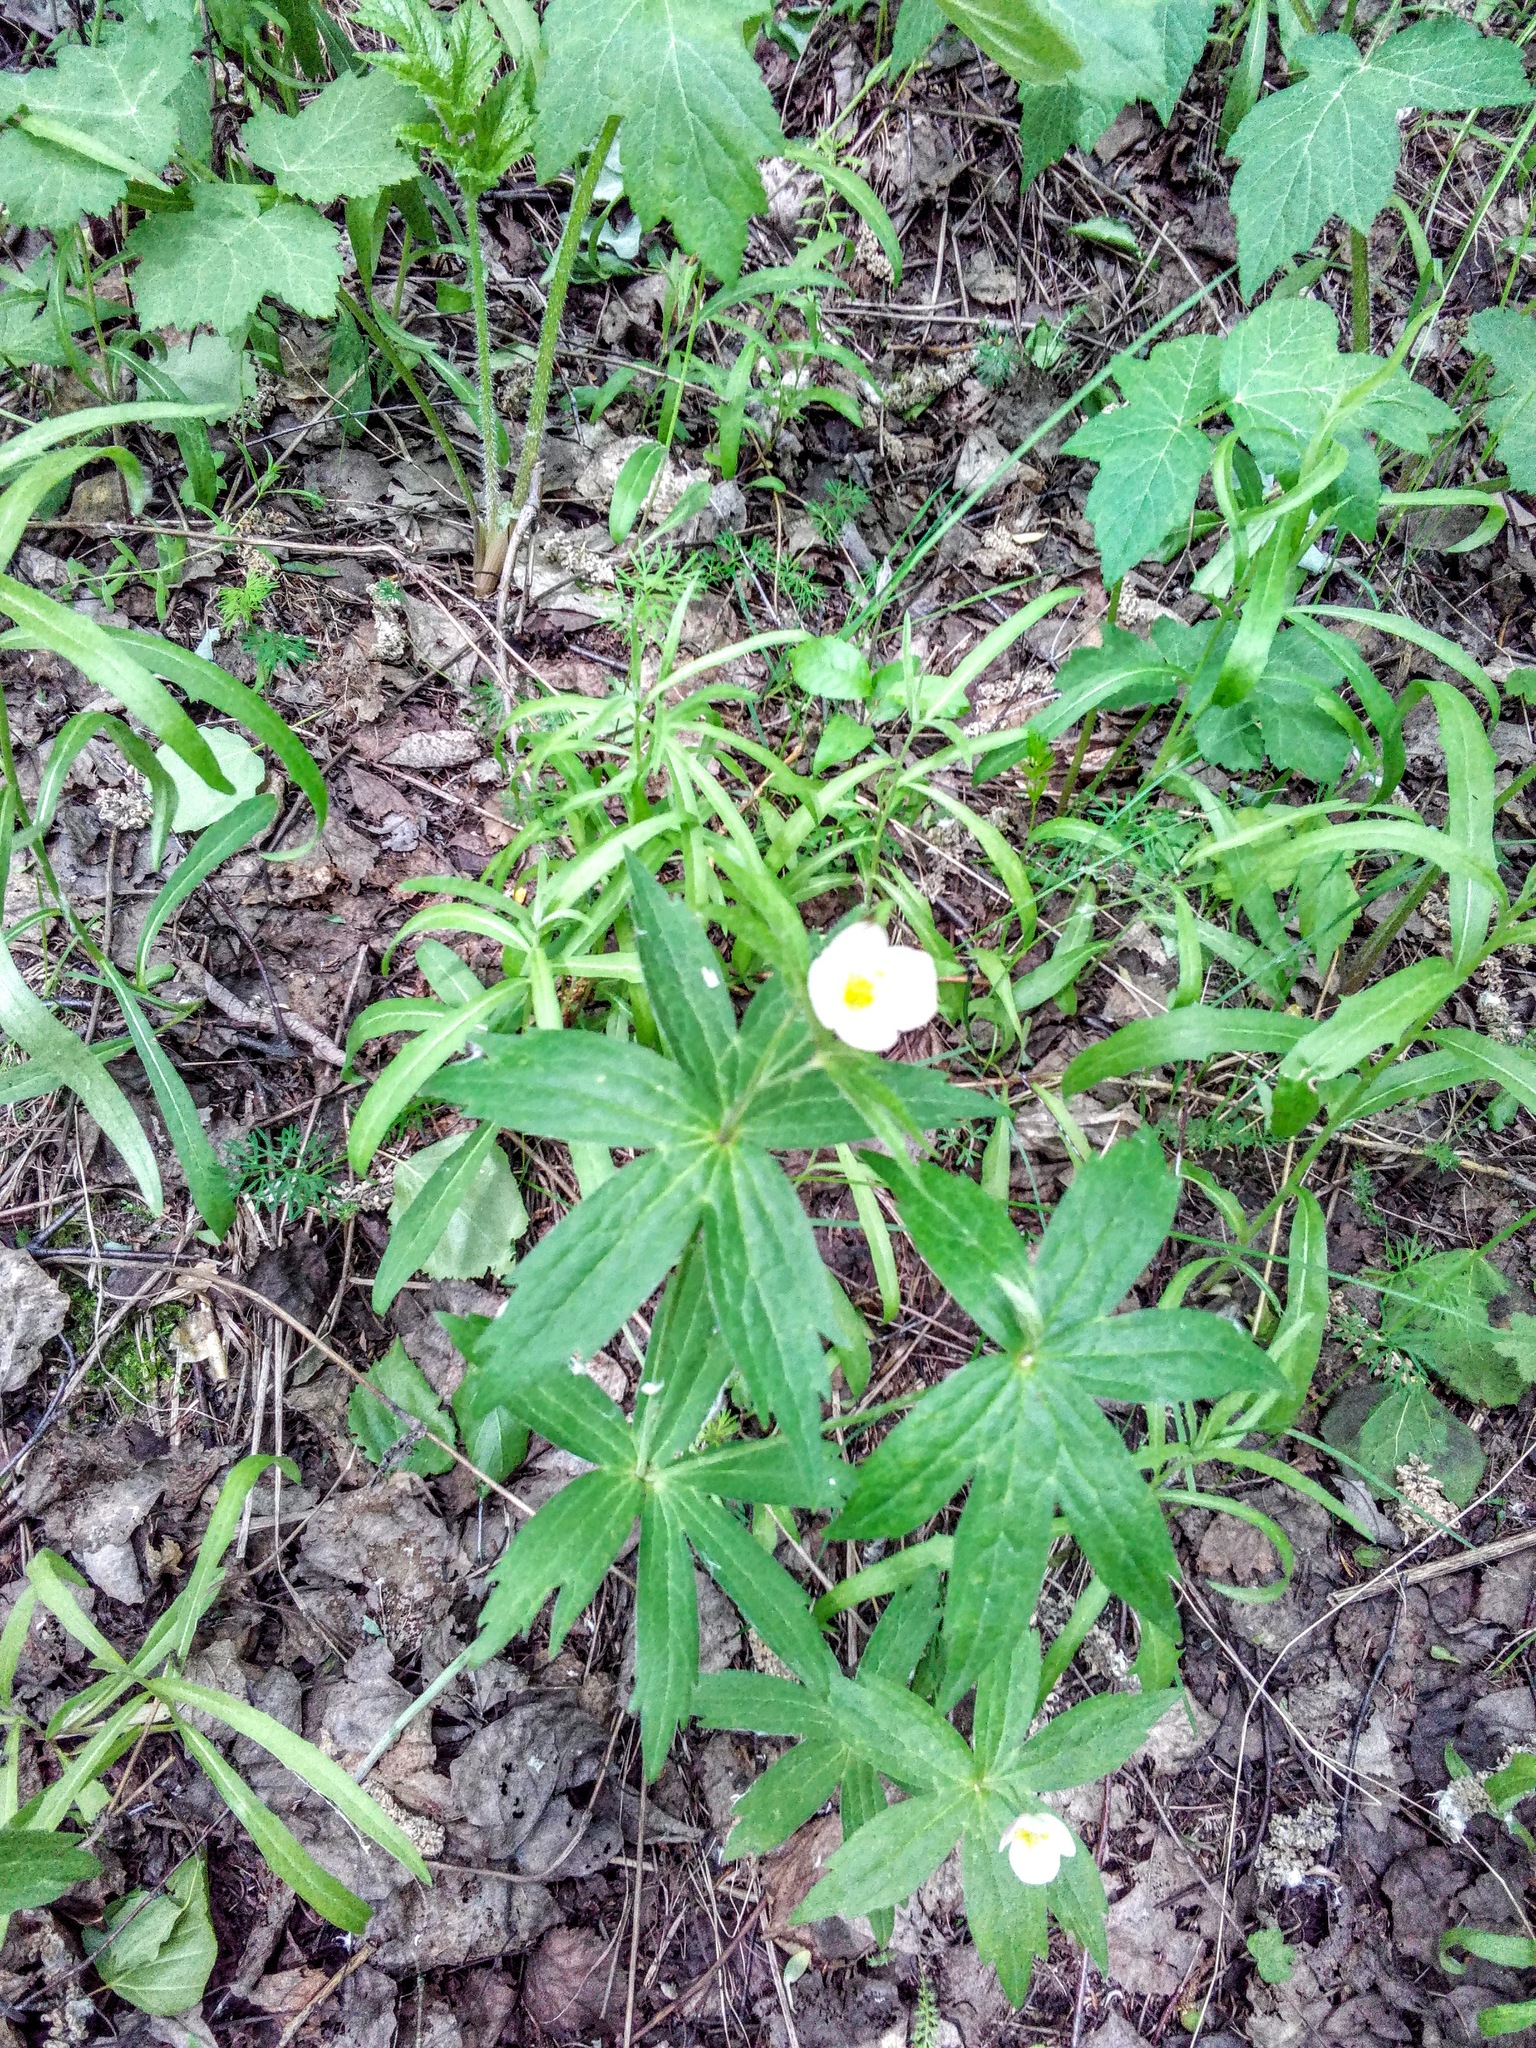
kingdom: Plantae
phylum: Tracheophyta
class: Magnoliopsida
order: Ranunculales
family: Ranunculaceae
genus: Anemonastrum
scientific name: Anemonastrum dichotomum
